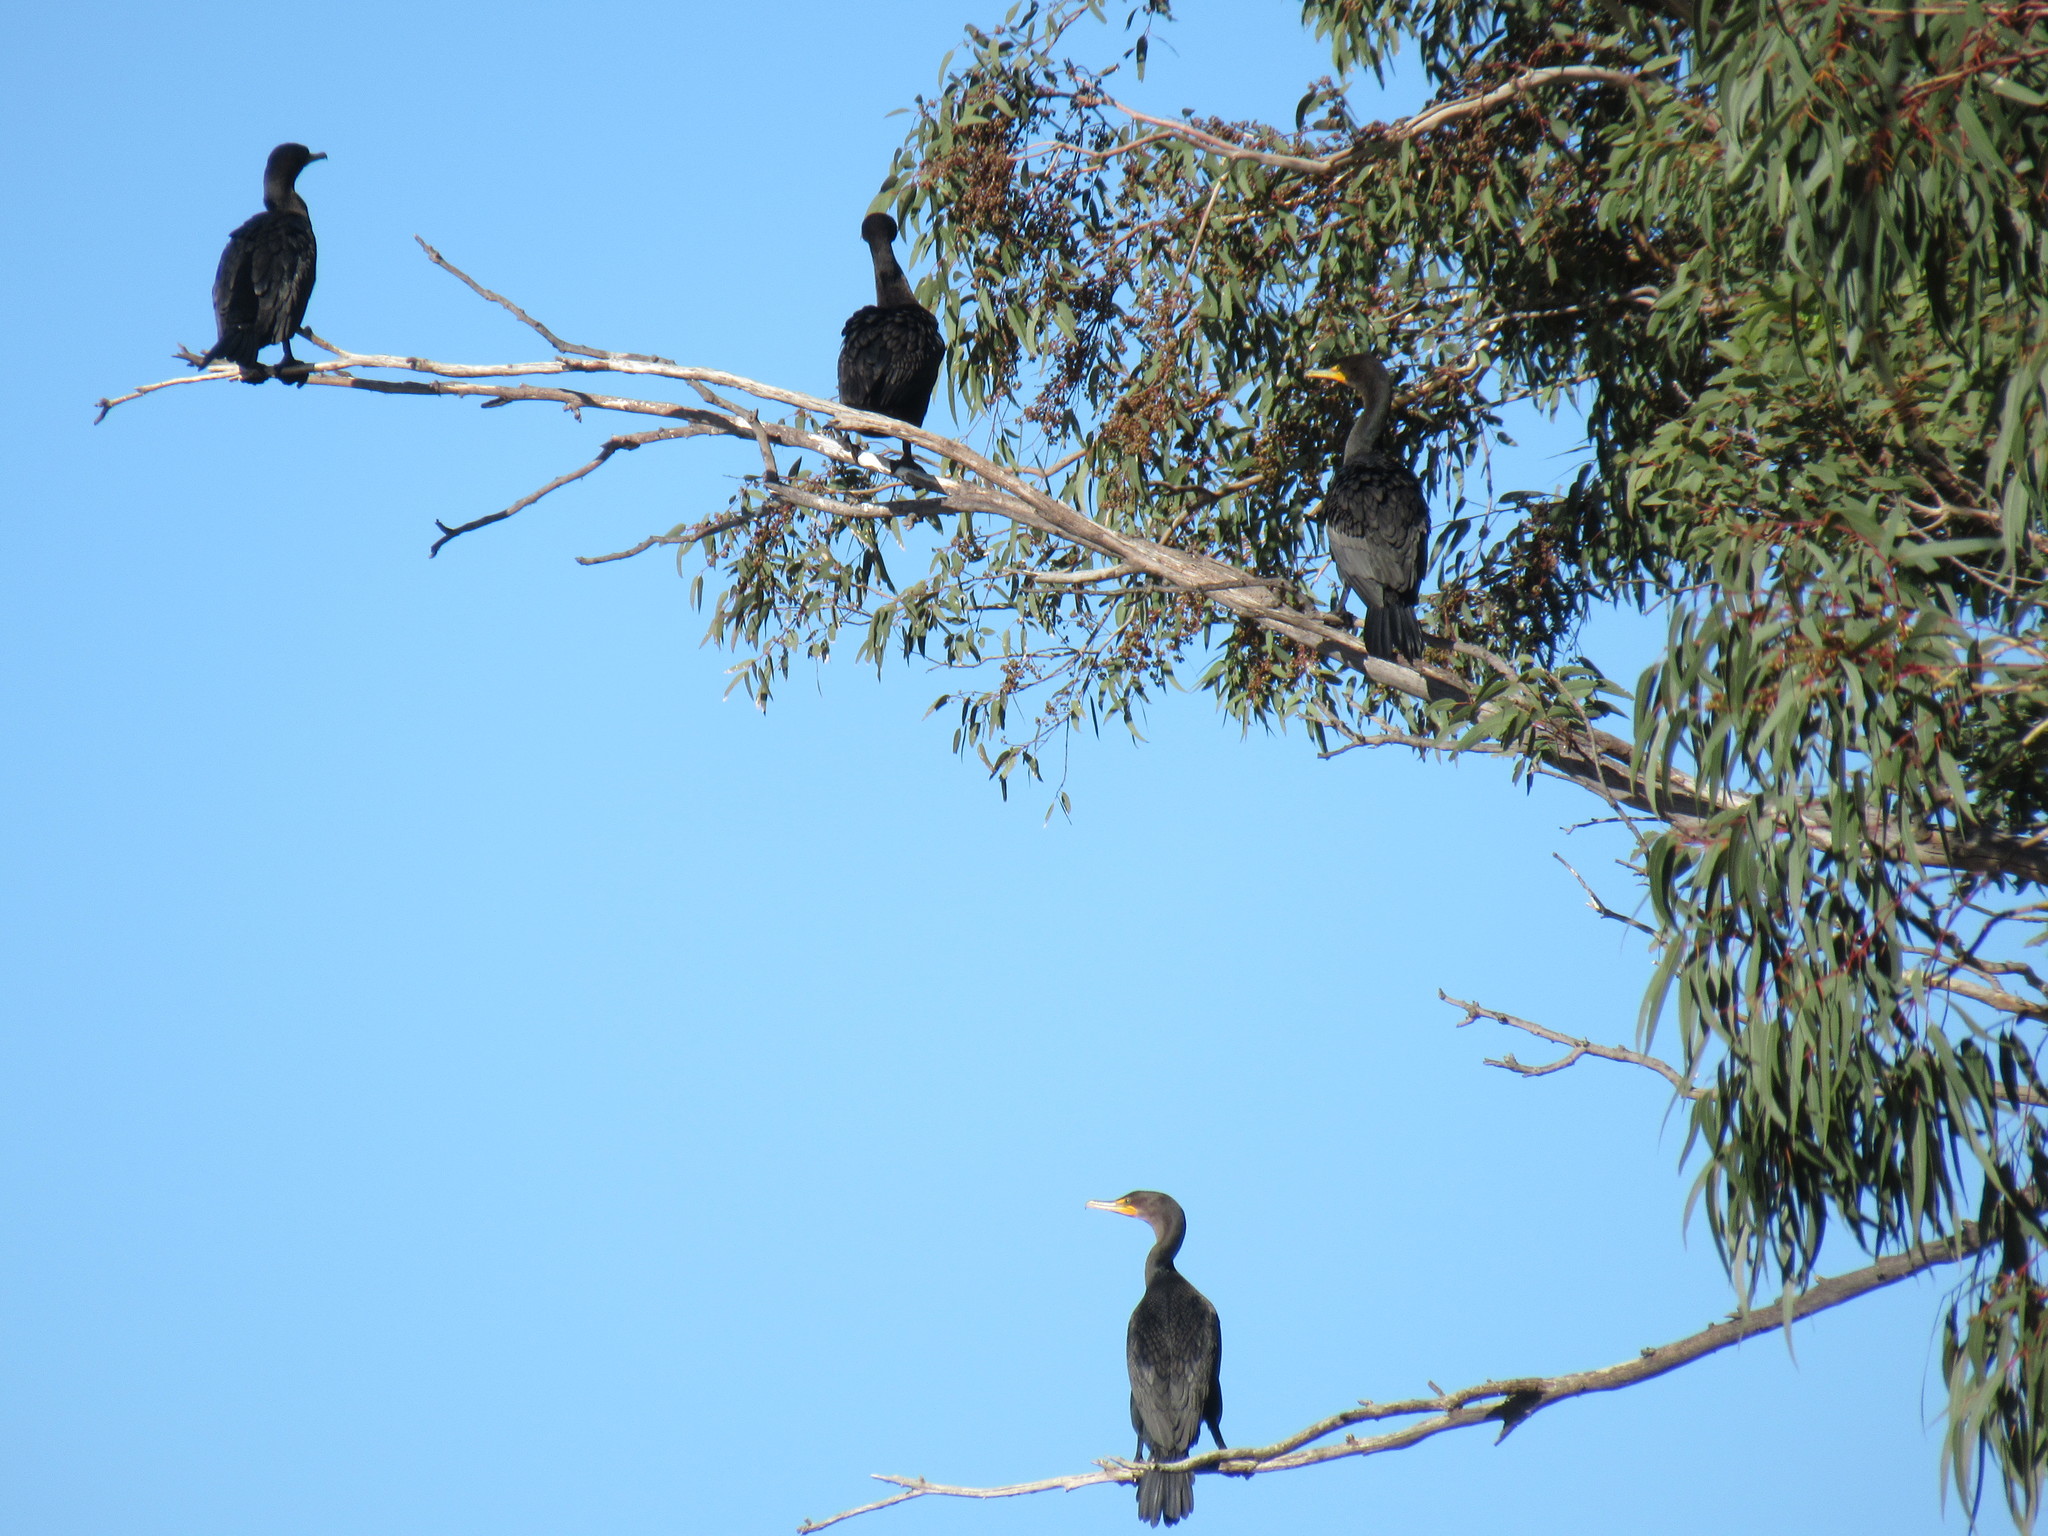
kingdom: Animalia
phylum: Chordata
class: Aves
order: Suliformes
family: Phalacrocoracidae
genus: Phalacrocorax
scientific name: Phalacrocorax auritus
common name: Double-crested cormorant
